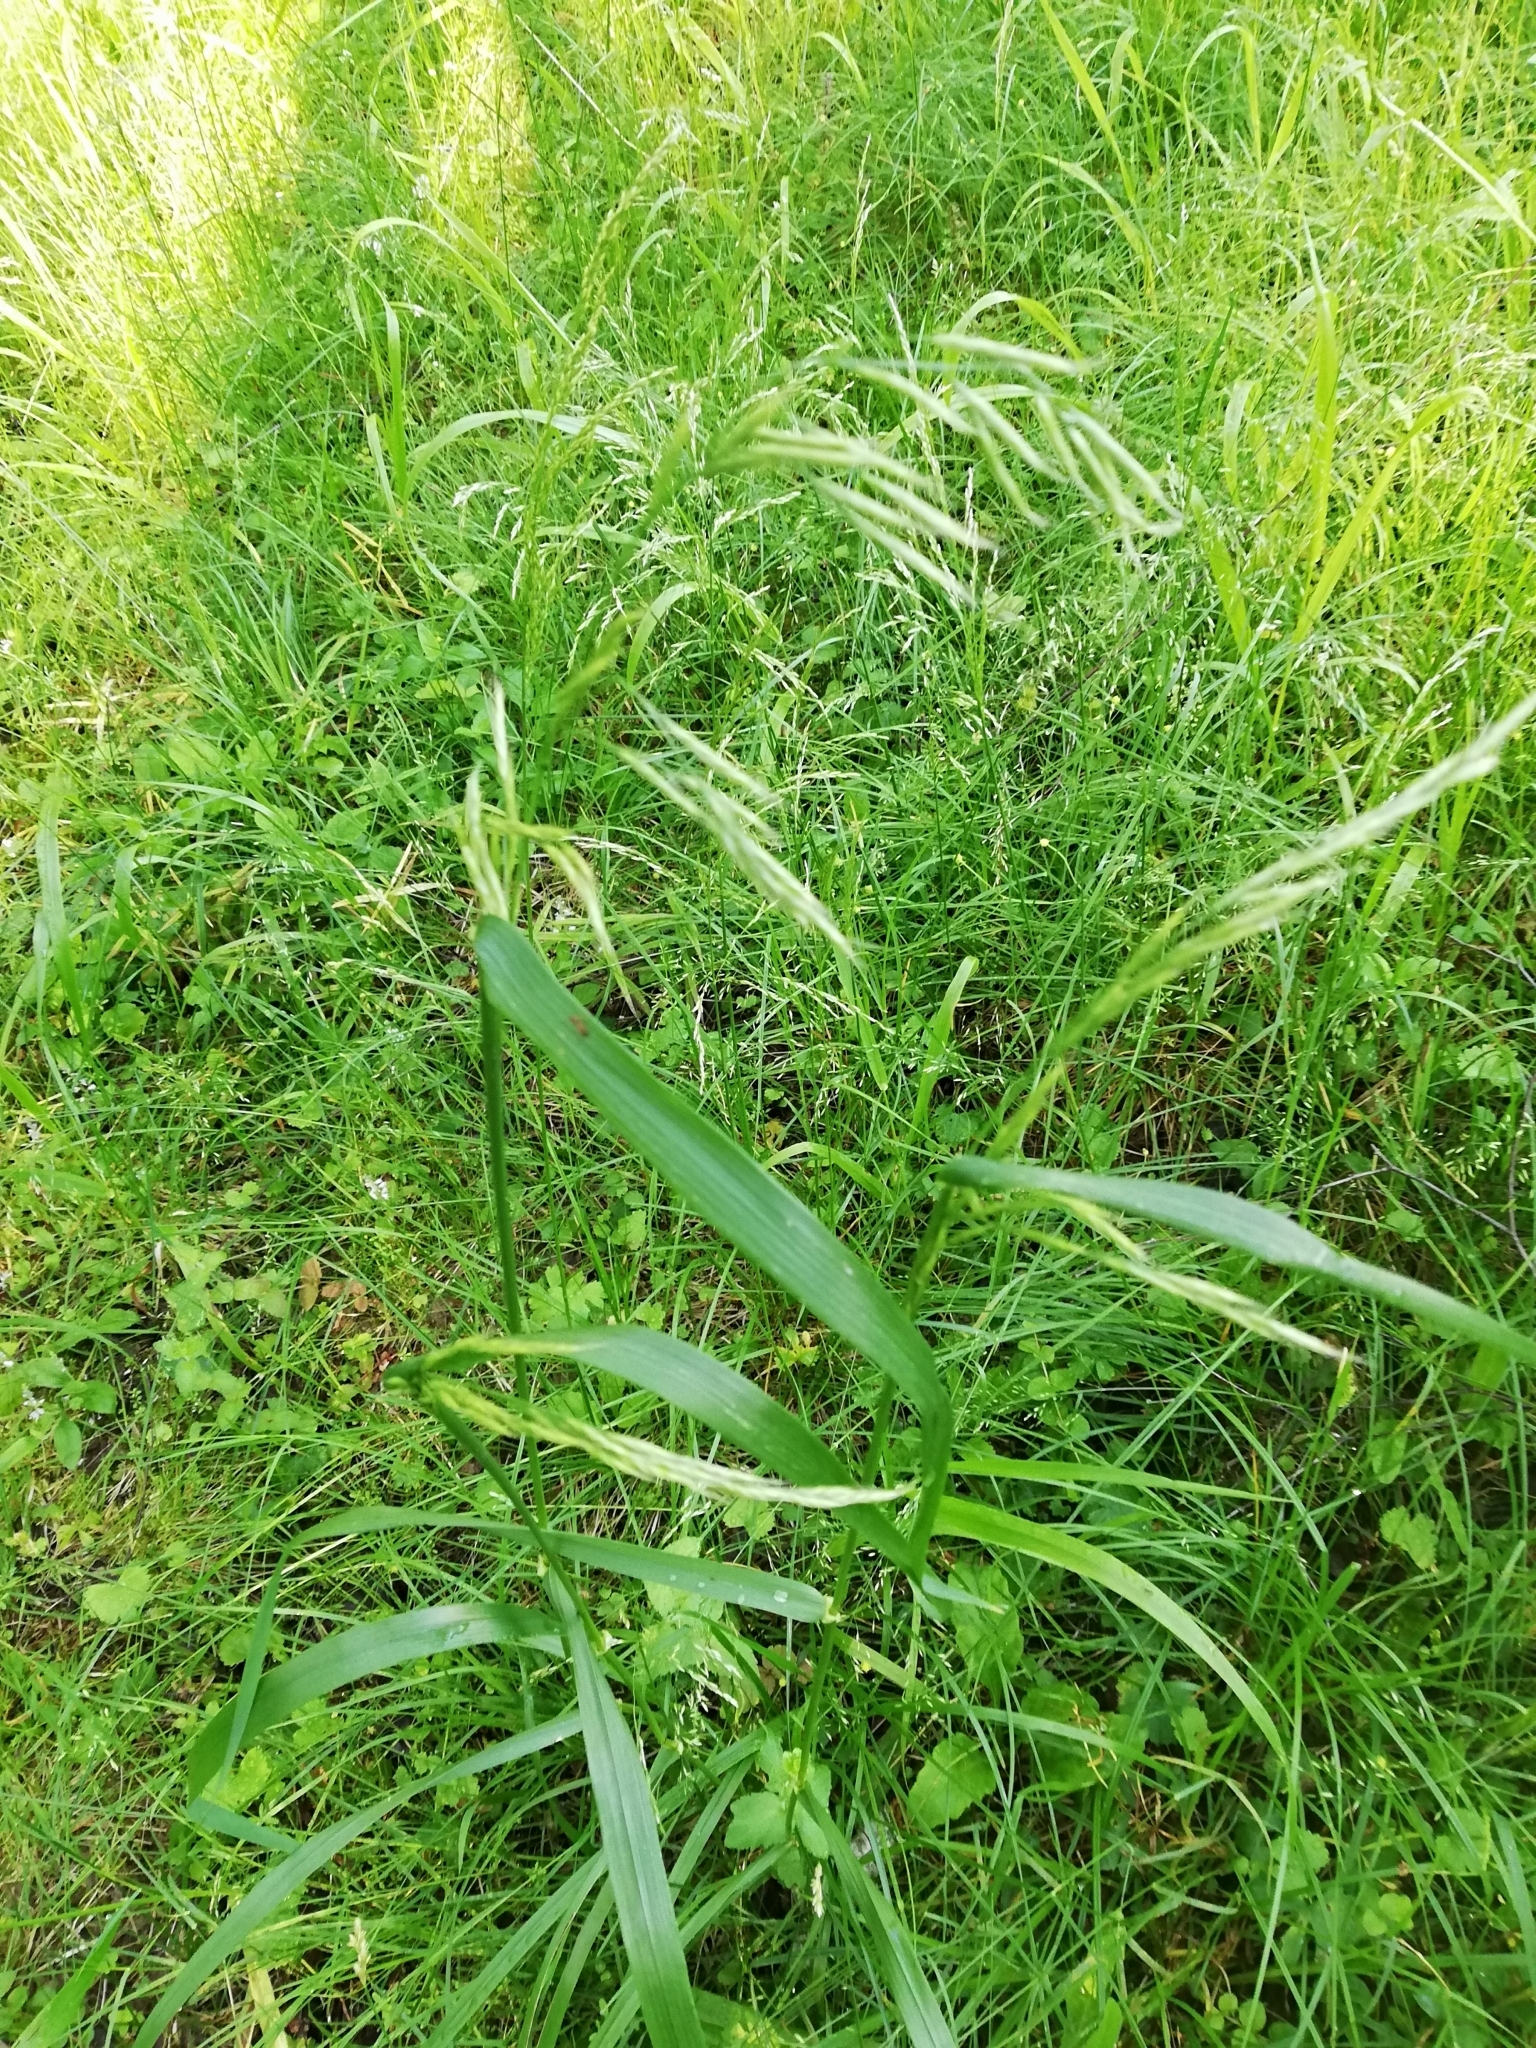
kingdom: Plantae
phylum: Tracheophyta
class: Liliopsida
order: Poales
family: Poaceae
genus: Lolium
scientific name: Lolium giganteum
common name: Giant fescue
